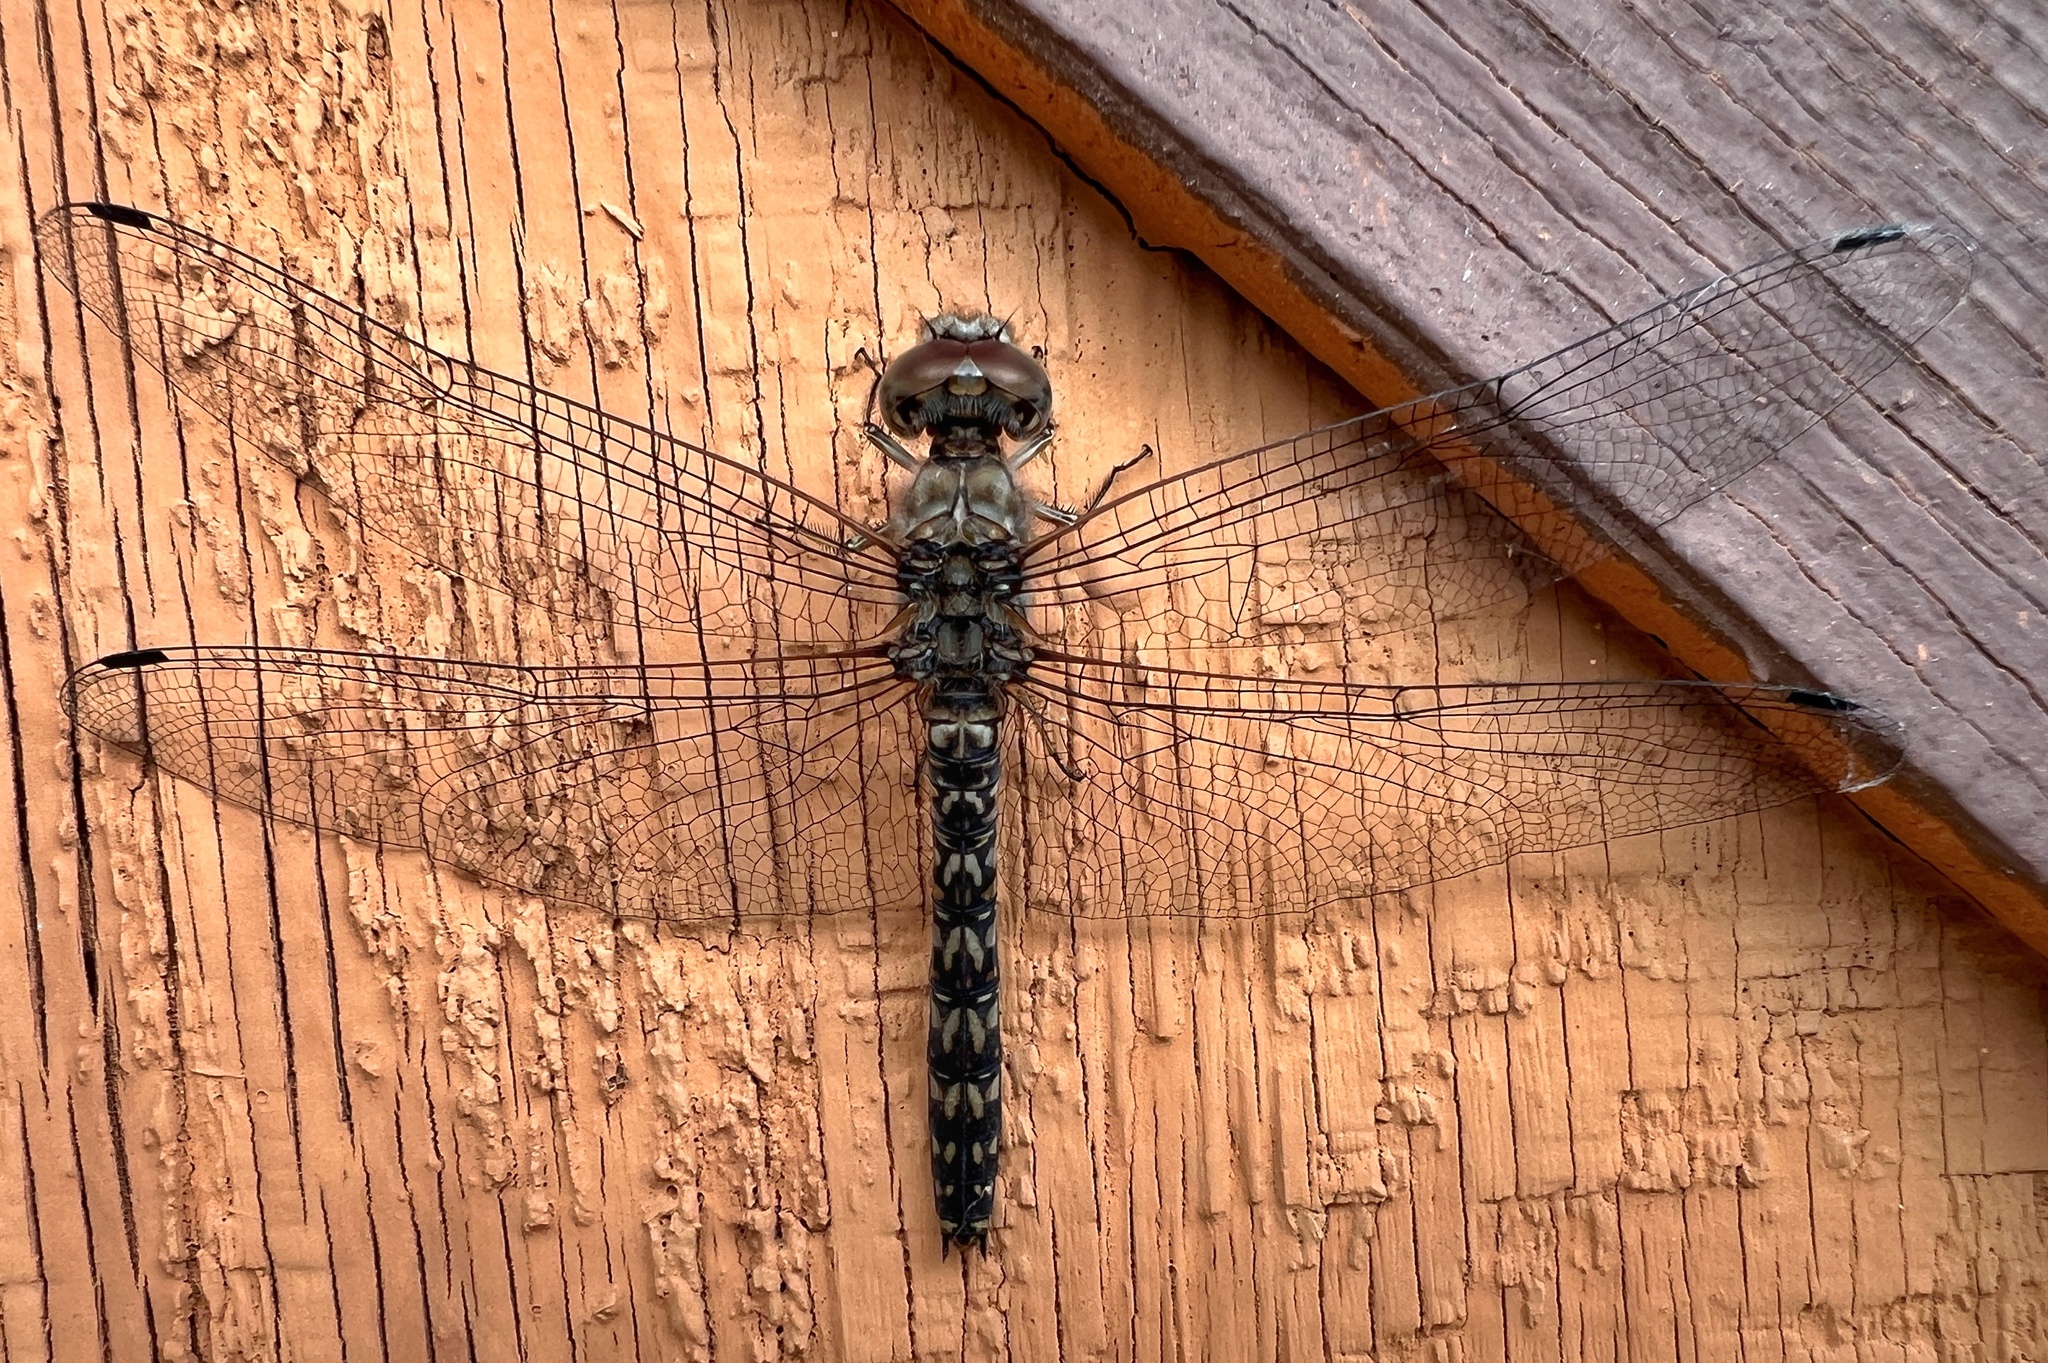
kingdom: Animalia
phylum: Arthropoda
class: Insecta
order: Odonata
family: Libellulidae
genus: Paltothemis
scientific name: Paltothemis lineatipes
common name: Red rock skimmer
